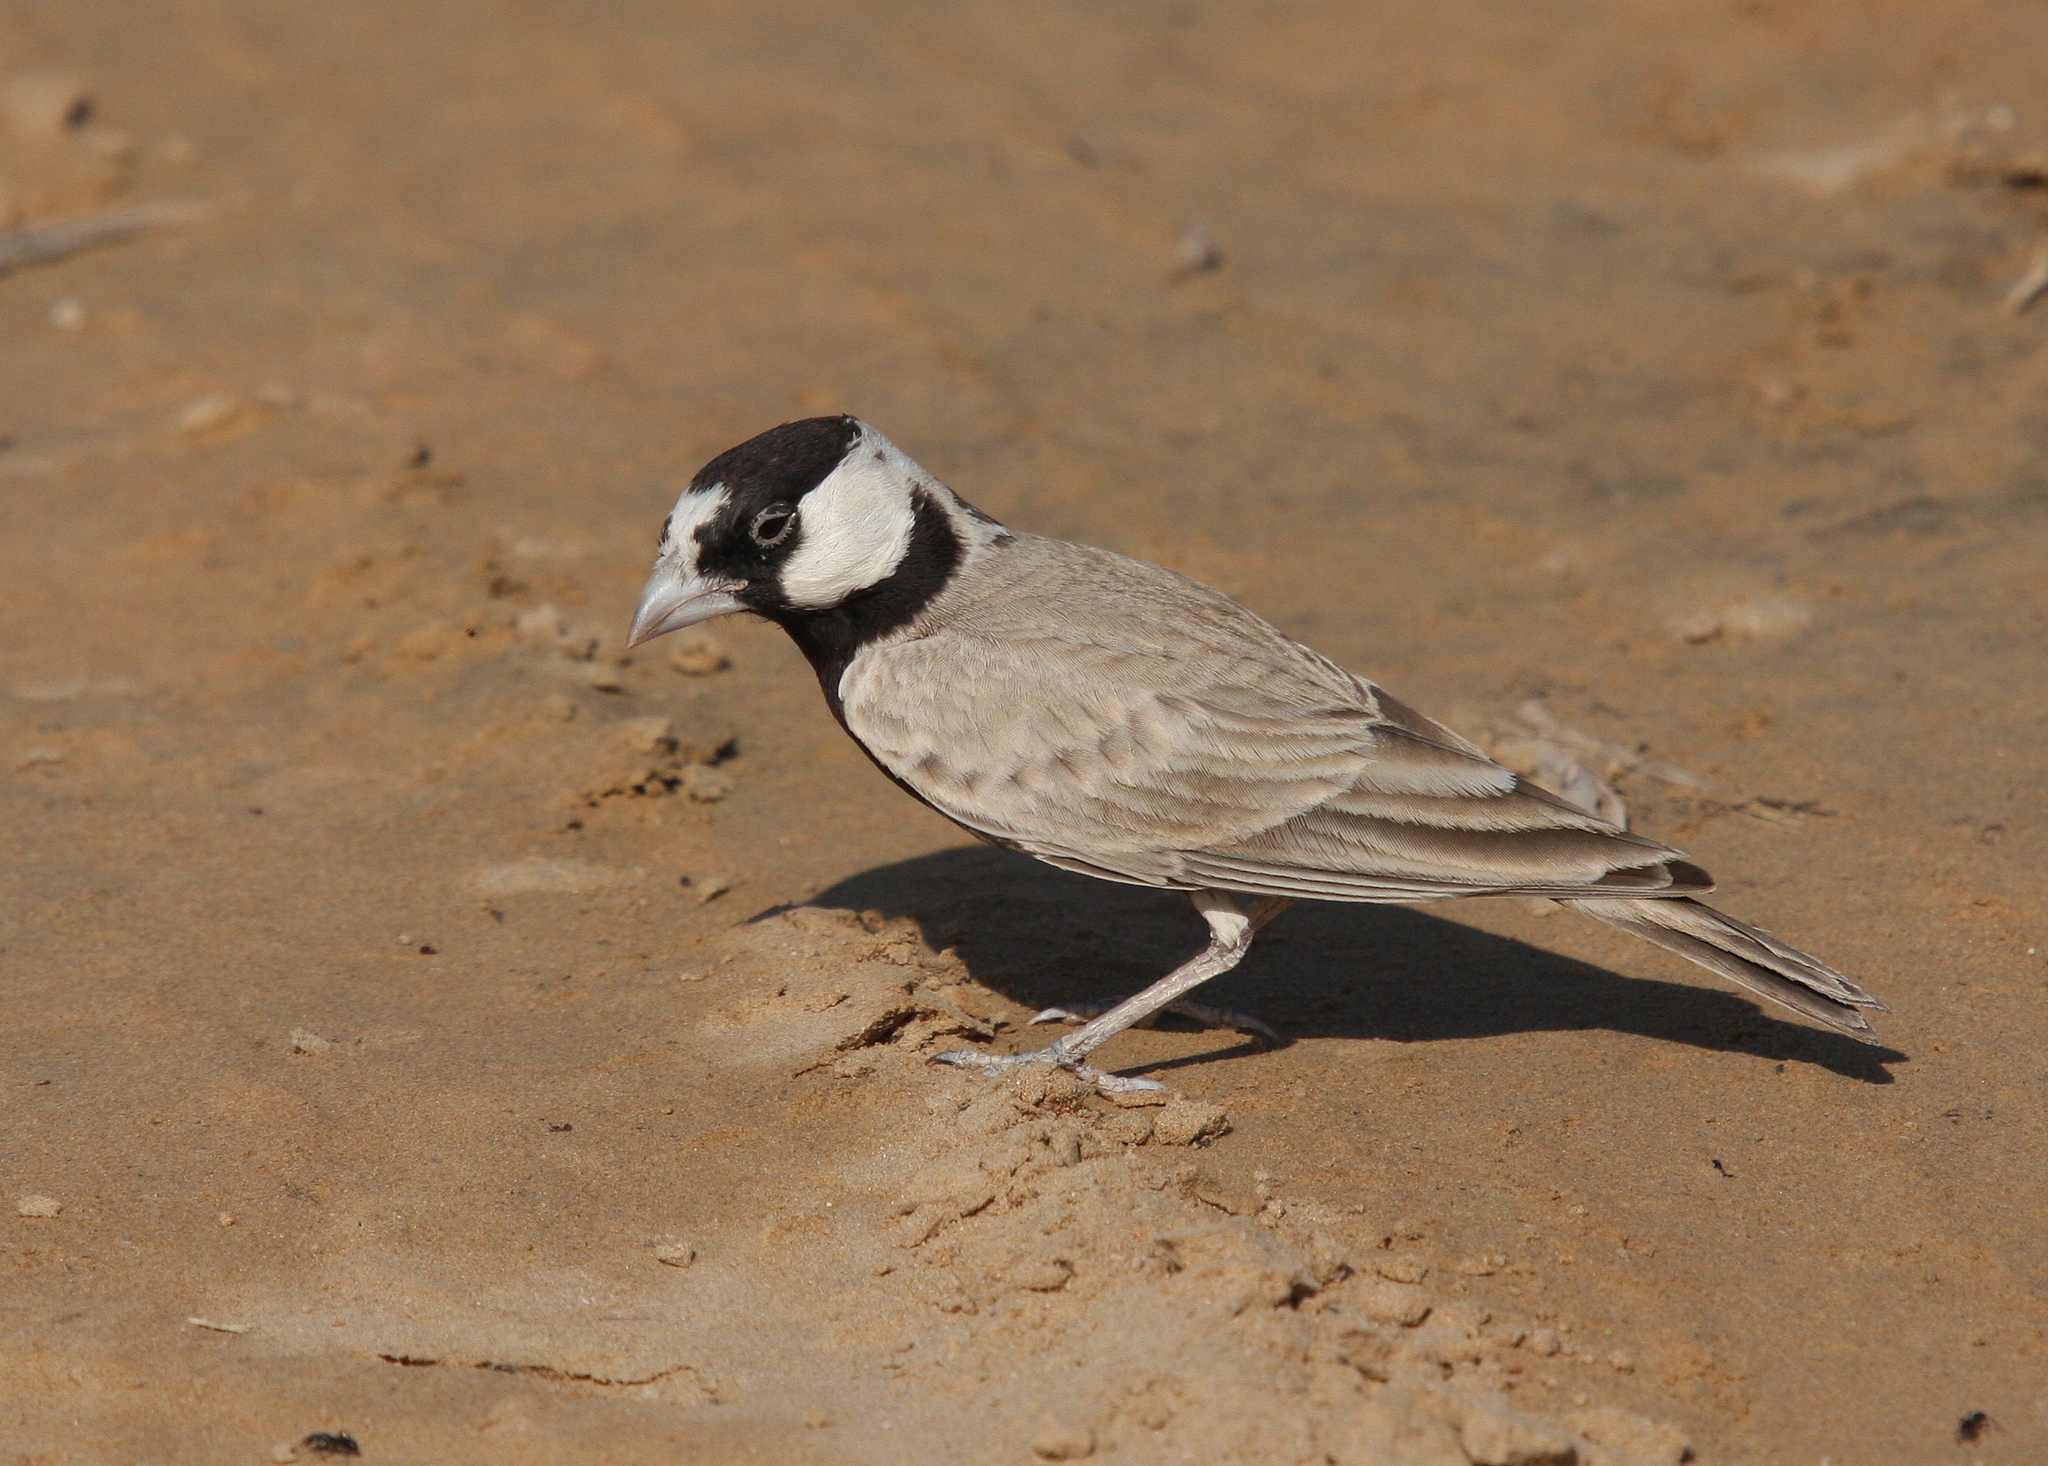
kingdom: Animalia
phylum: Chordata
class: Aves
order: Passeriformes
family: Alaudidae
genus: Eremopterix
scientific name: Eremopterix nigriceps
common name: Black-crowned sparrow-lark
